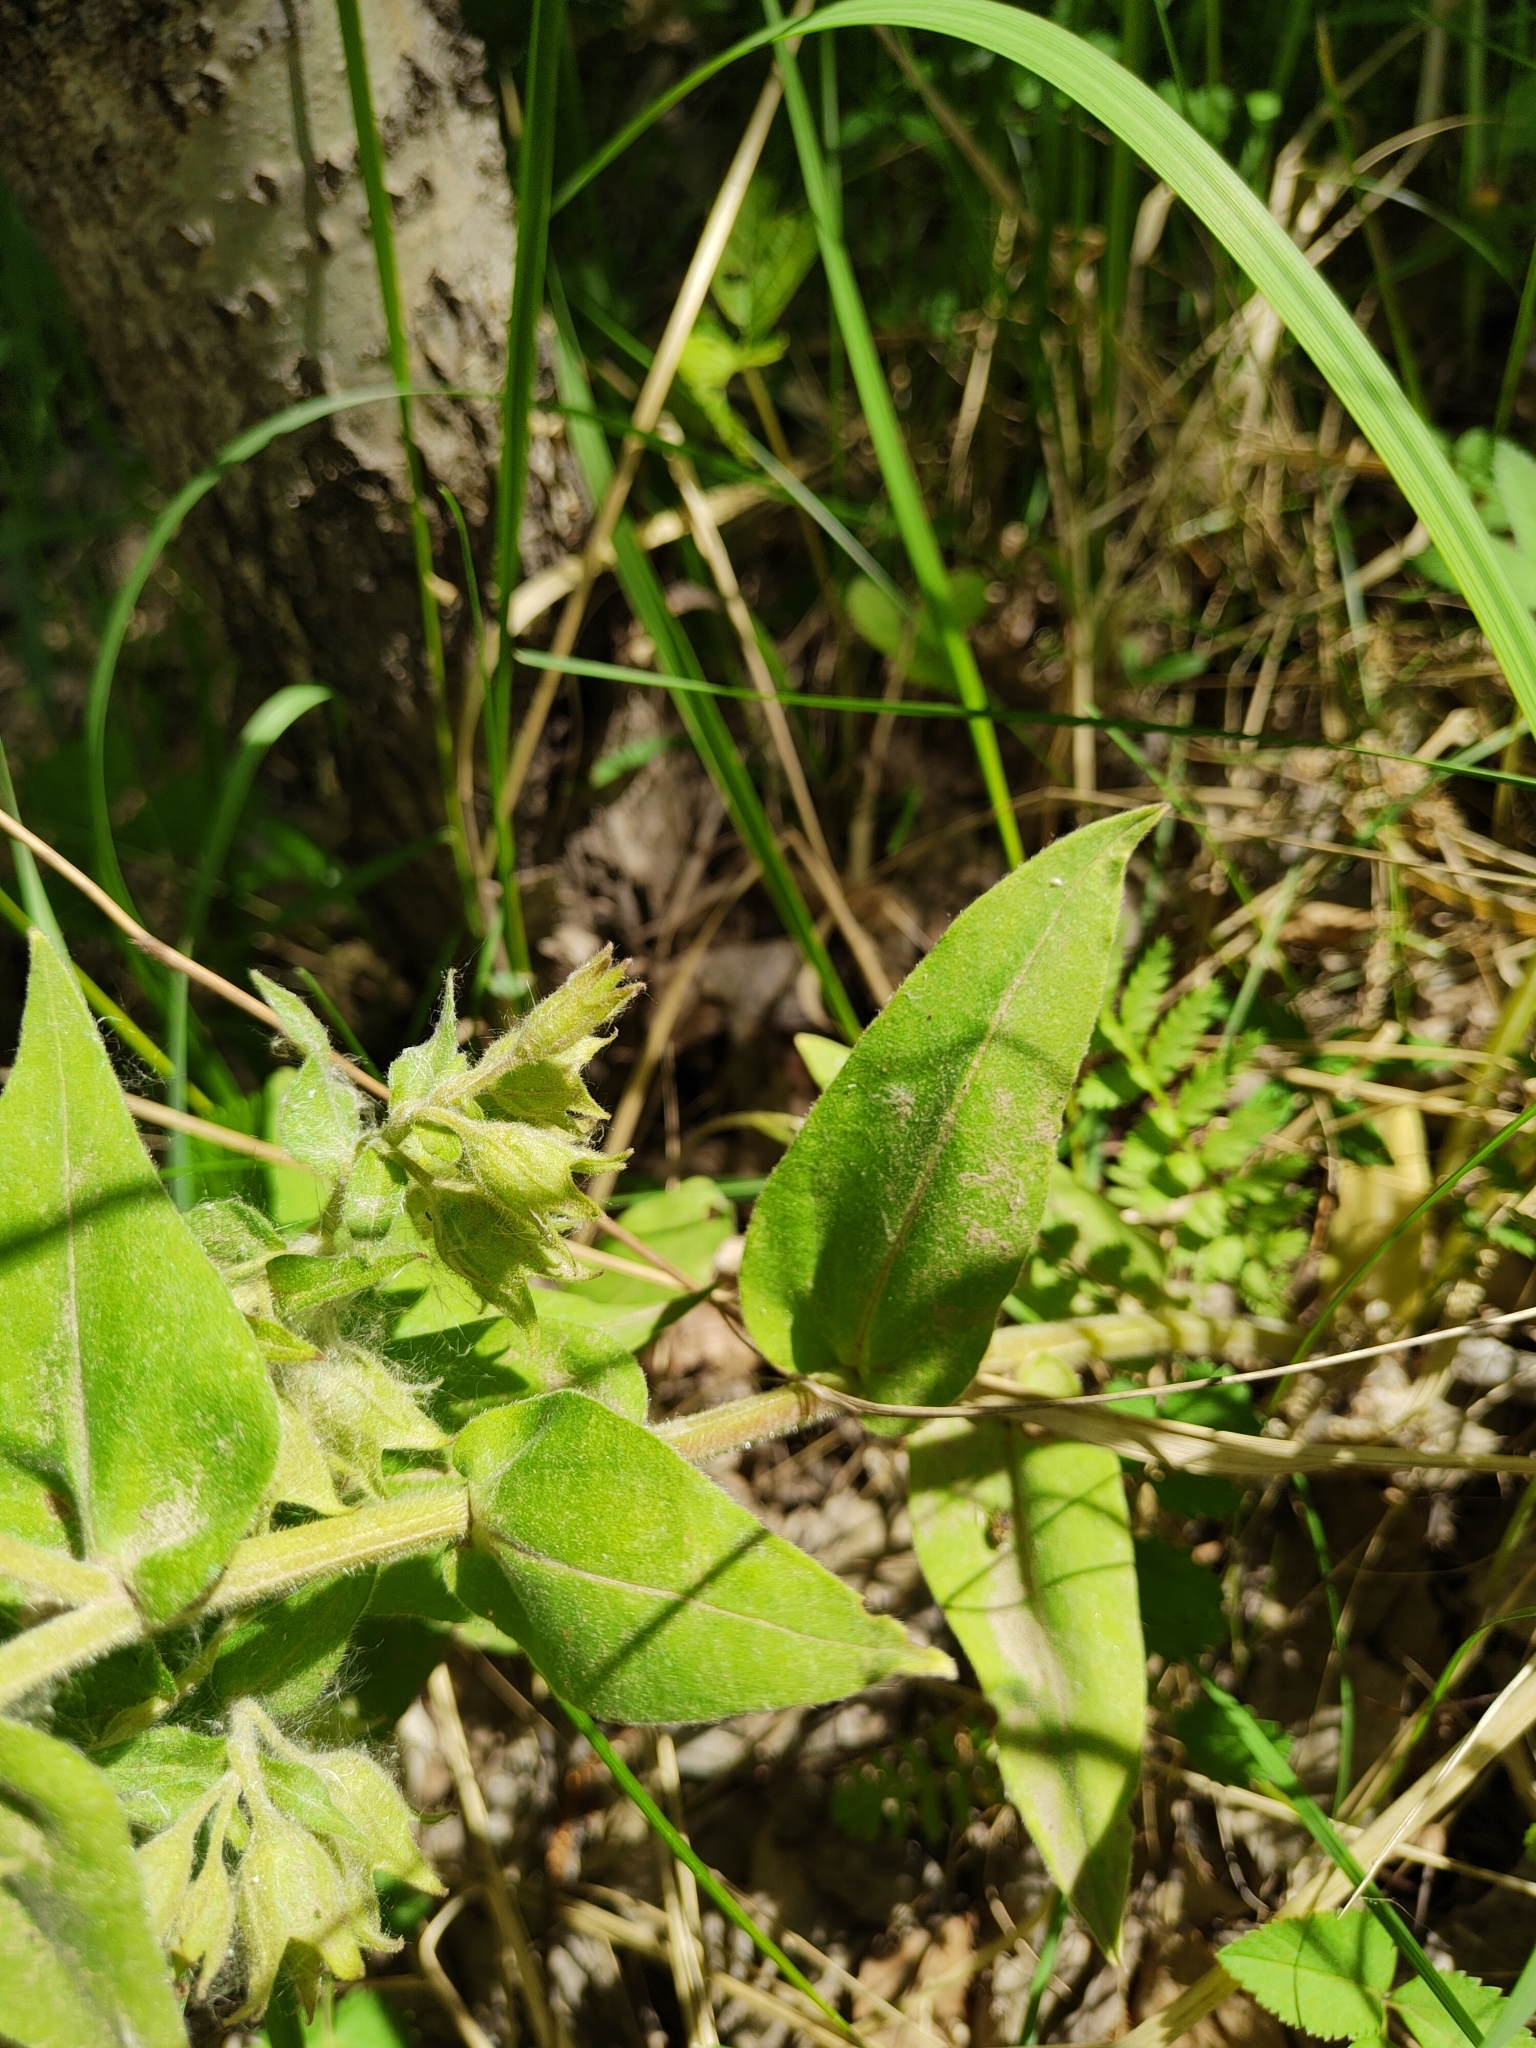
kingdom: Plantae
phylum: Tracheophyta
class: Magnoliopsida
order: Boraginales
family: Boraginaceae
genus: Pulmonaria
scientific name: Pulmonaria mollis
